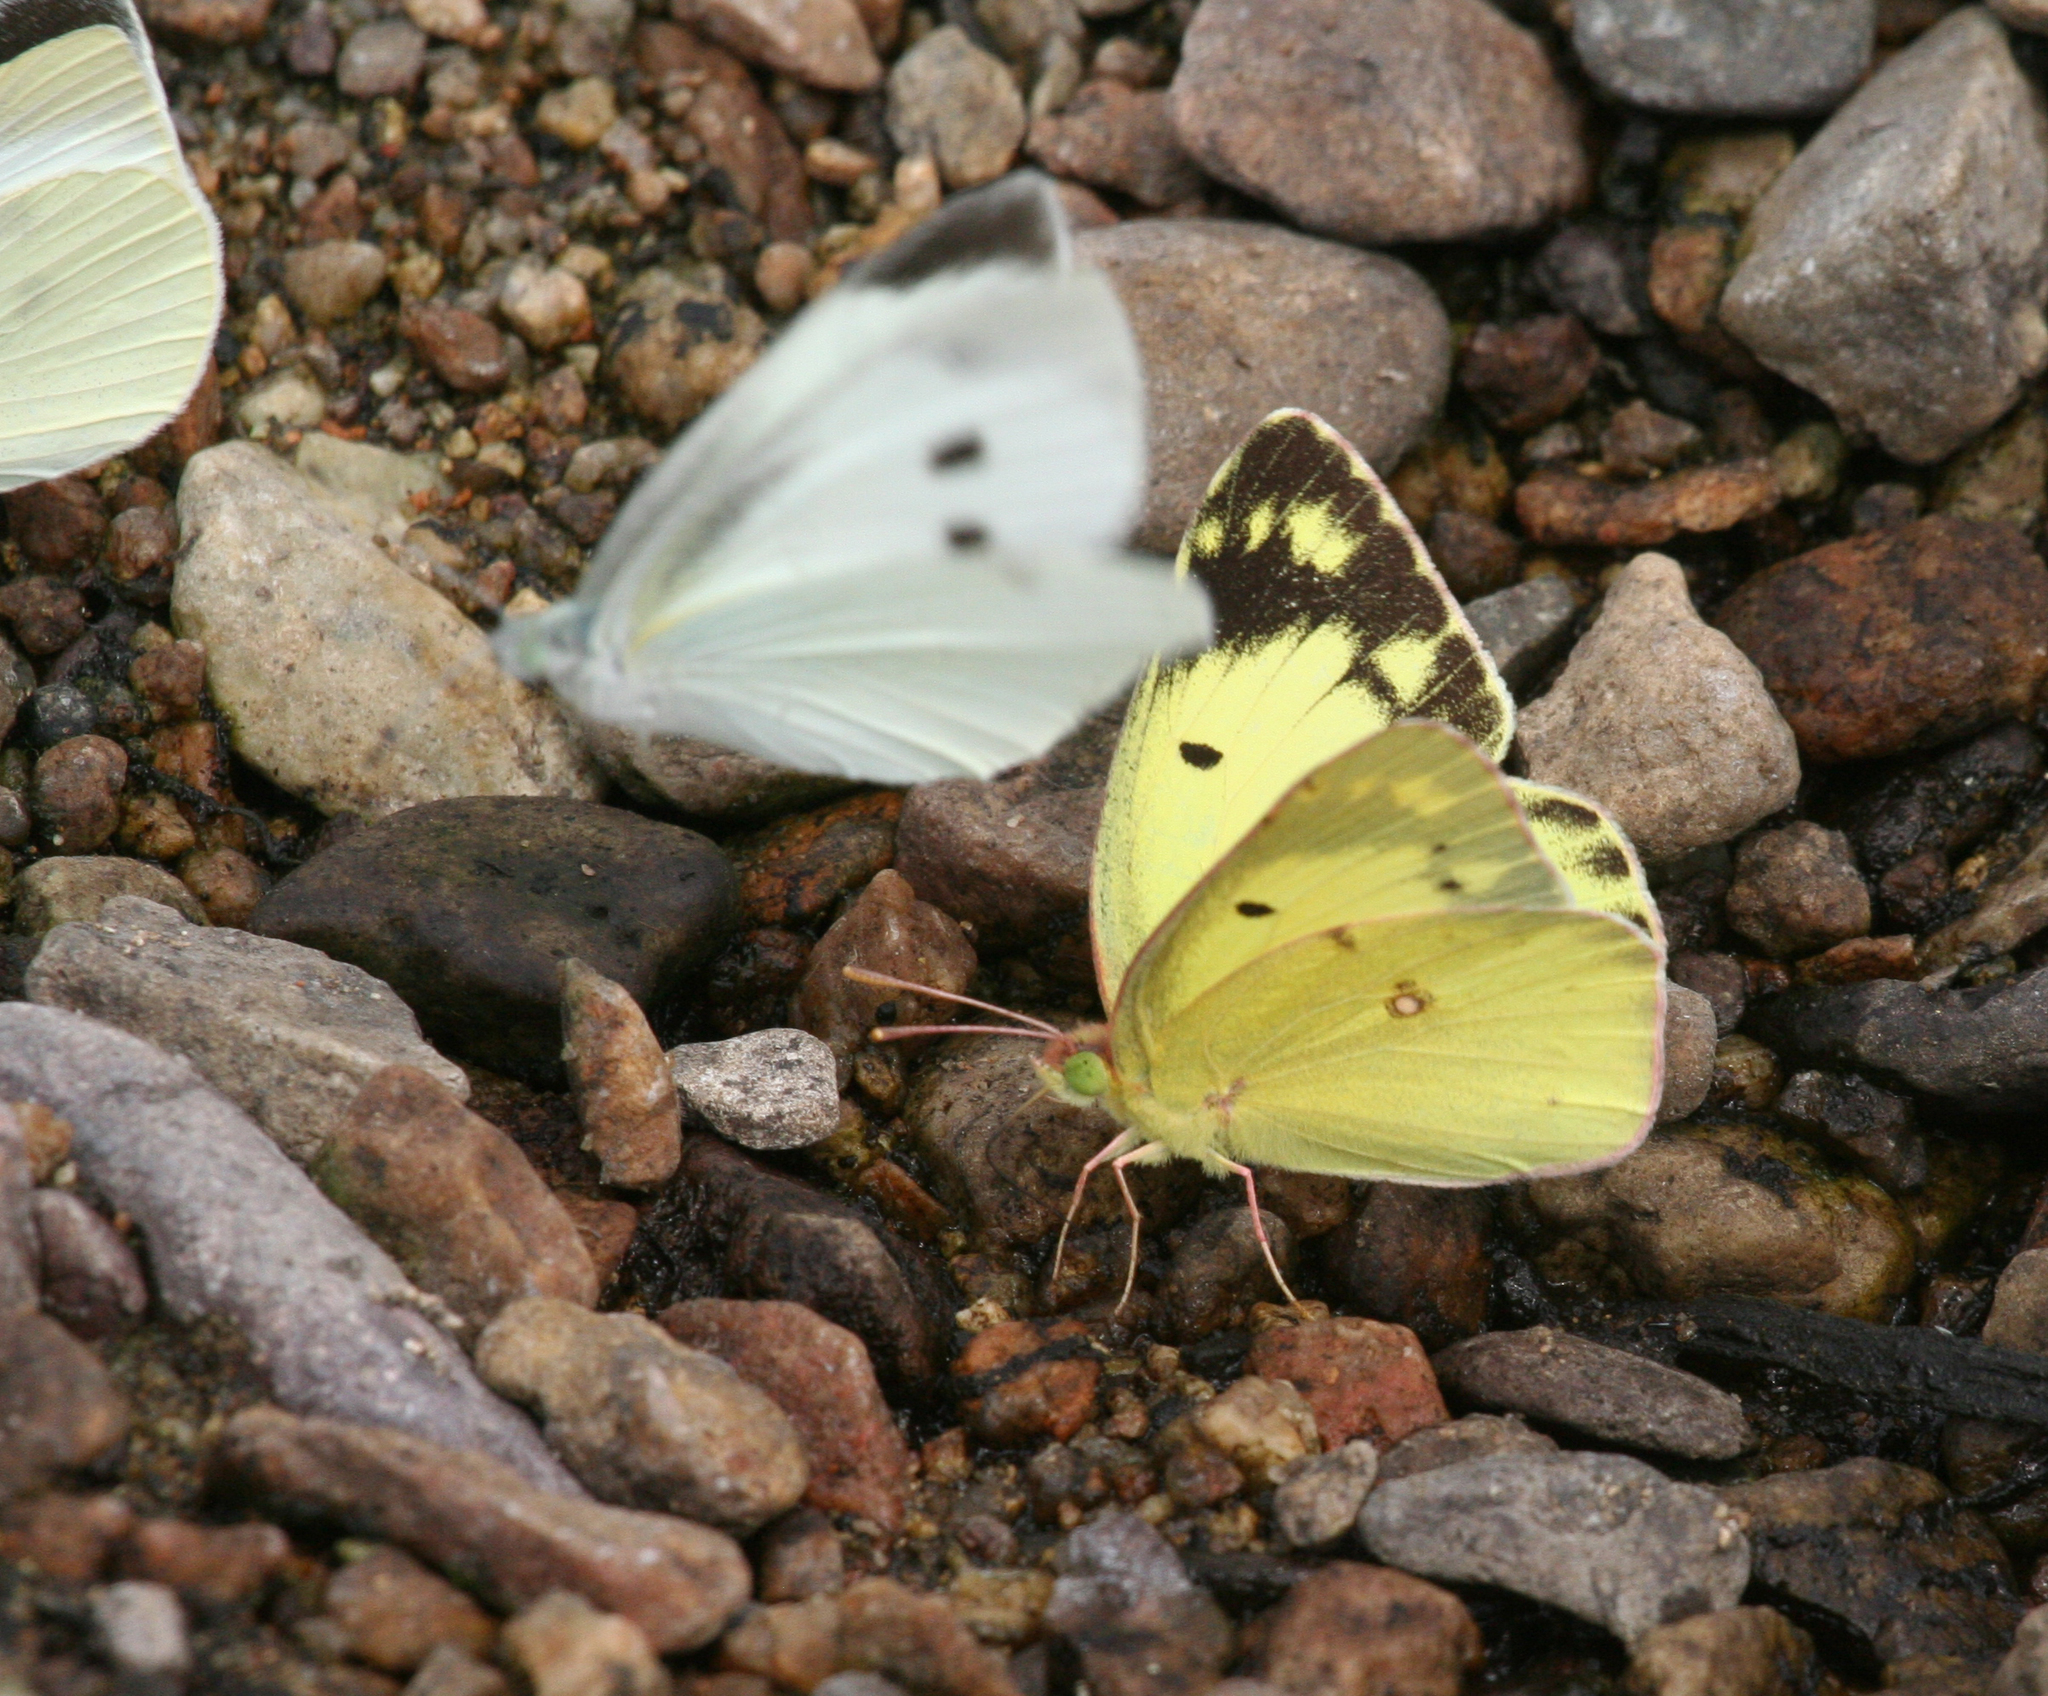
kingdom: Animalia
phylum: Arthropoda
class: Insecta
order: Lepidoptera
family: Pieridae
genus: Pieris
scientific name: Pieris rapae
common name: Small white
